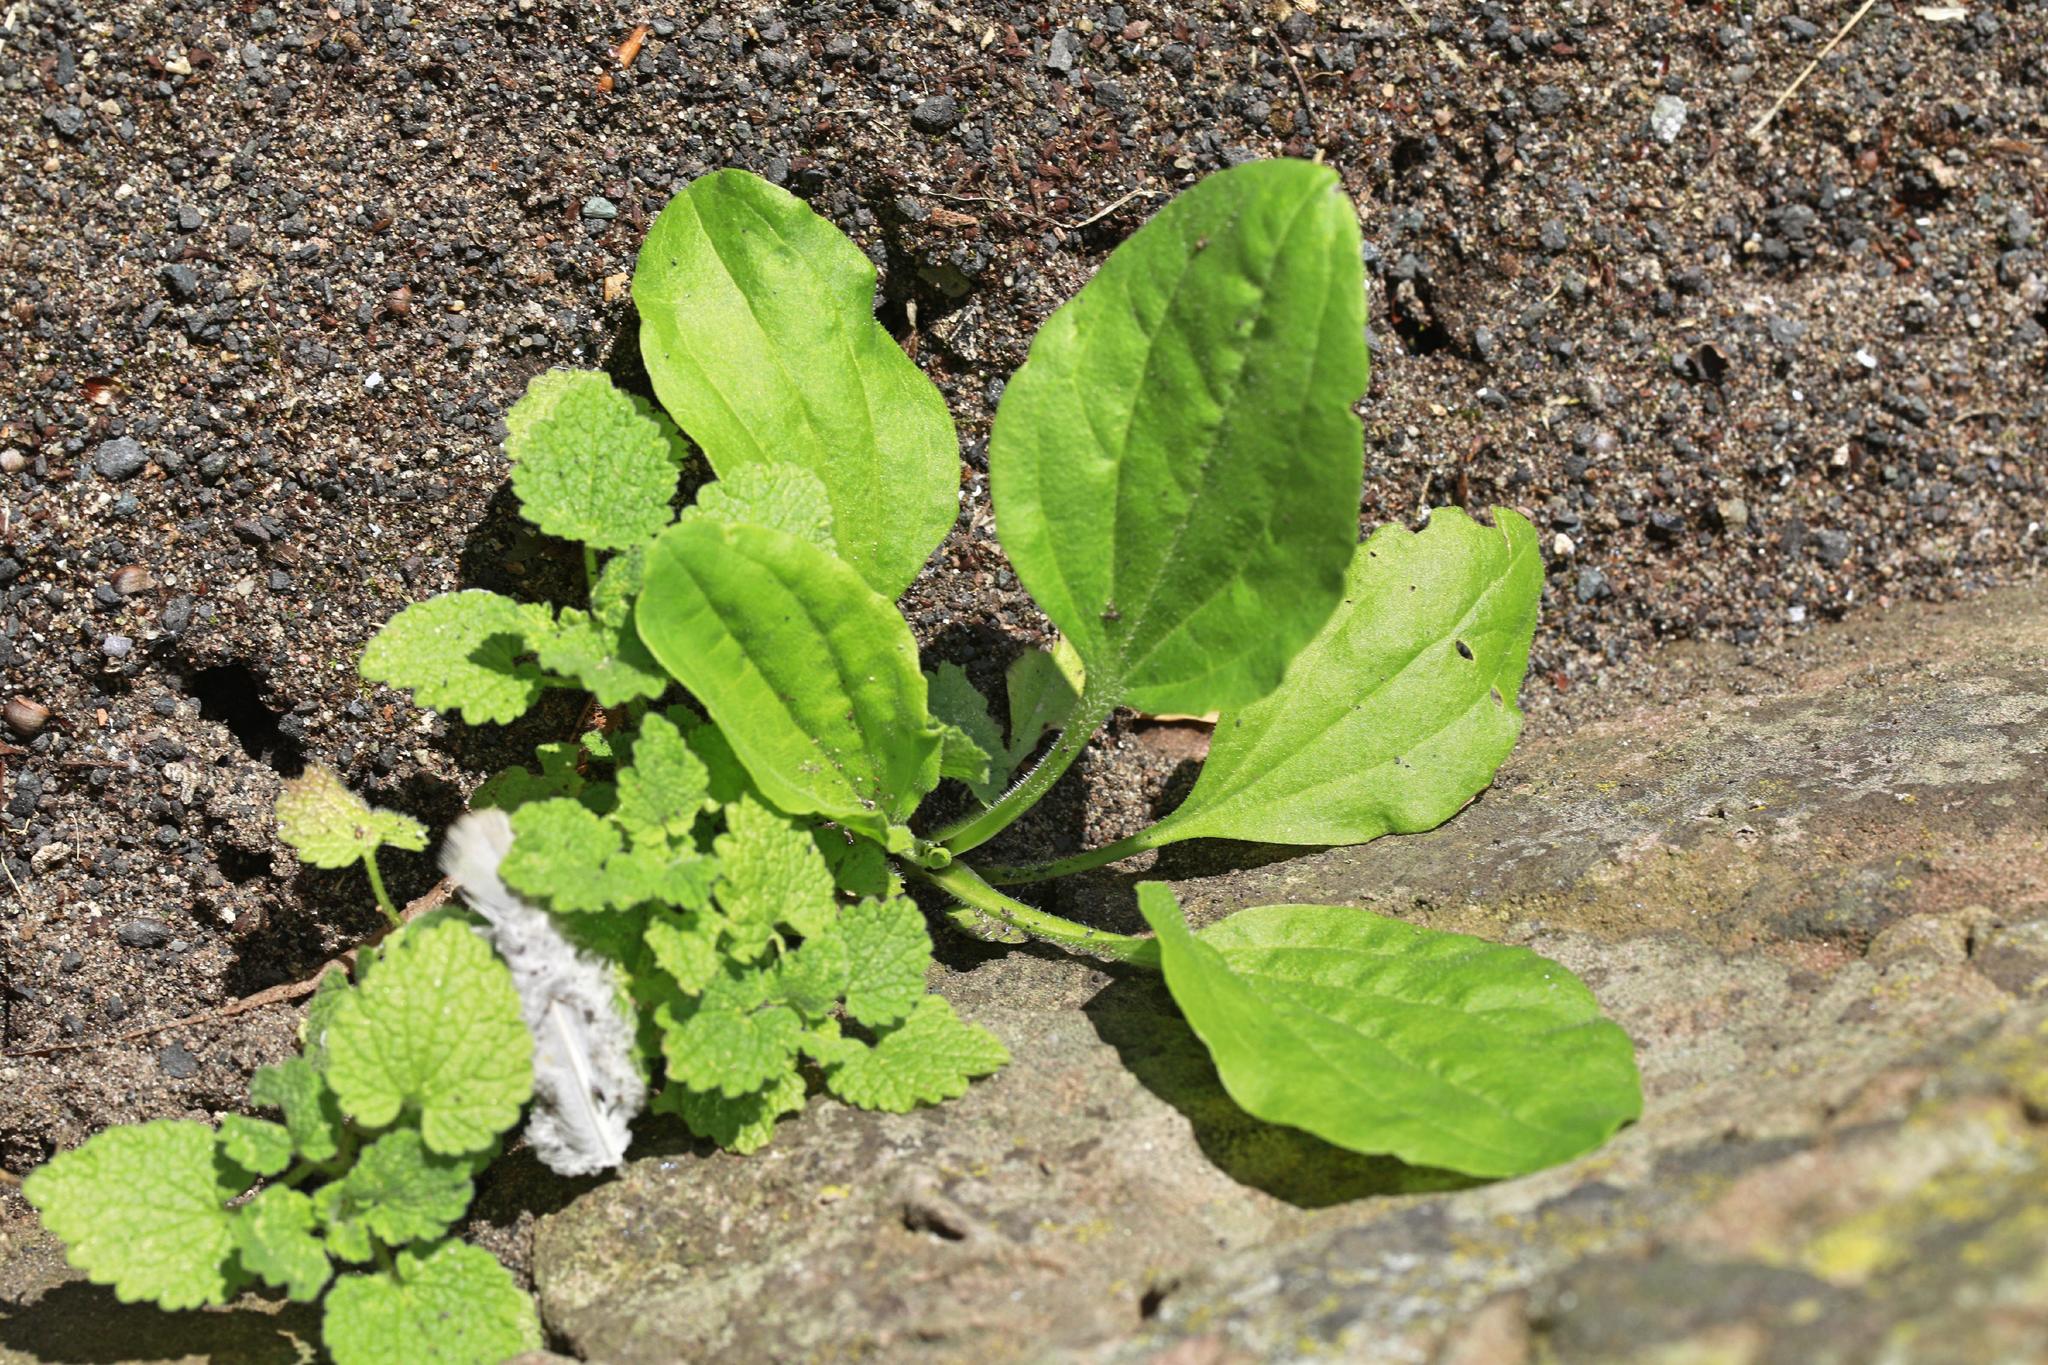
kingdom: Plantae
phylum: Tracheophyta
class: Magnoliopsida
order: Lamiales
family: Plantaginaceae
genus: Plantago
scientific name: Plantago major
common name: Common plantain
